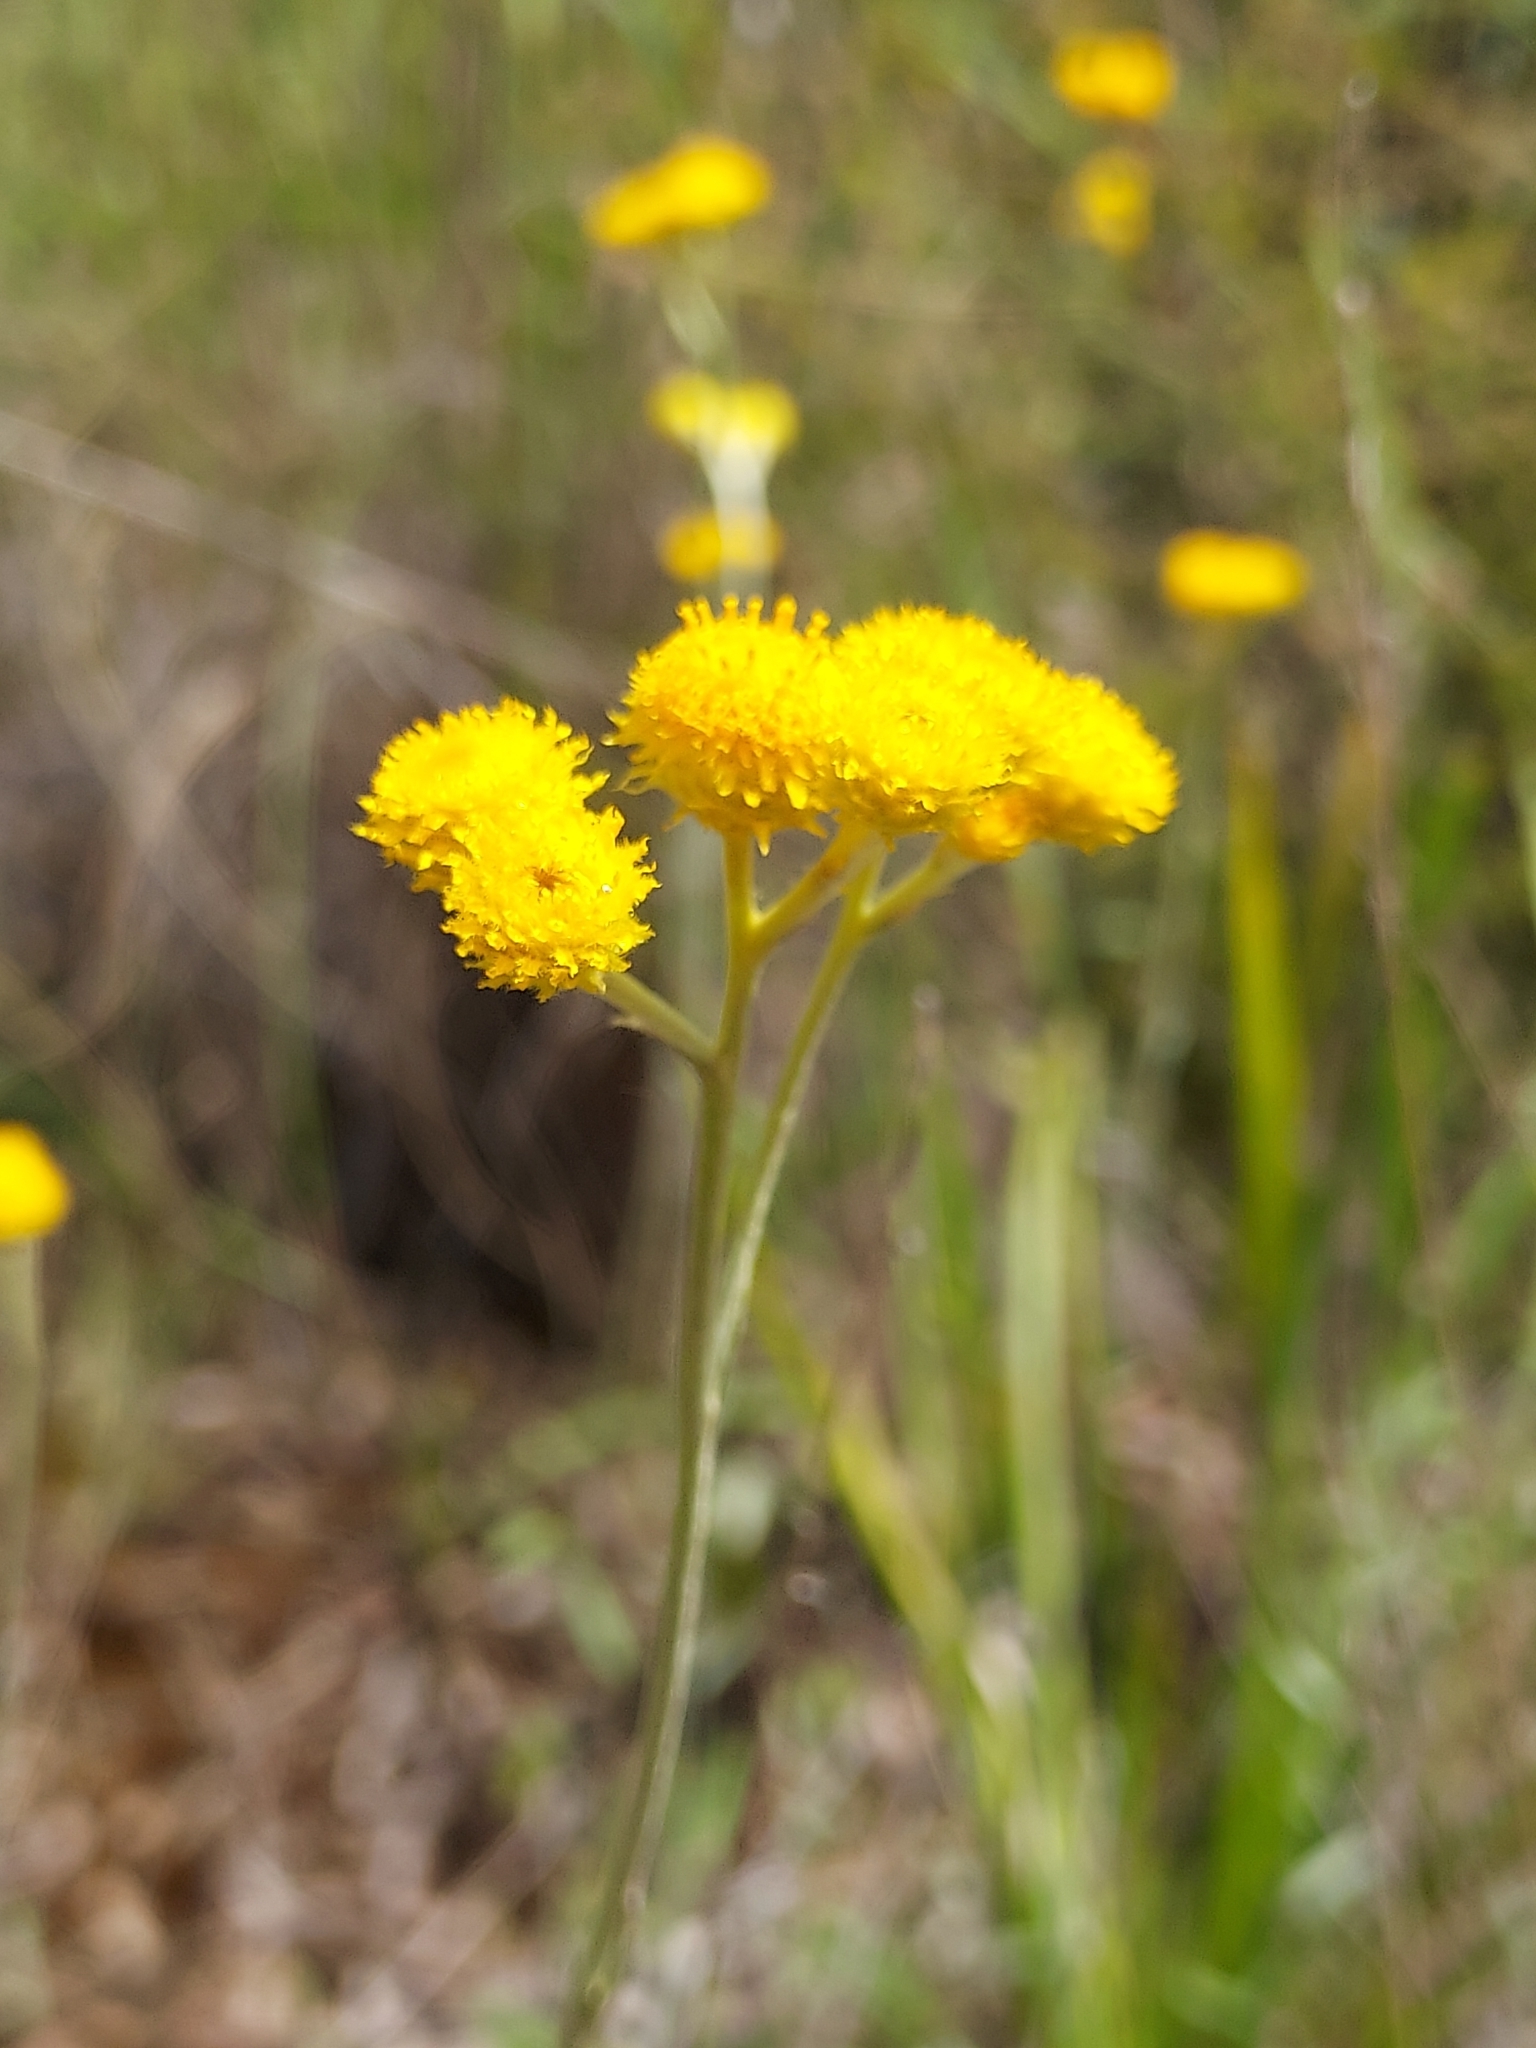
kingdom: Plantae
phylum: Tracheophyta
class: Magnoliopsida
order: Asterales
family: Asteraceae
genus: Chrysocephalum
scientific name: Chrysocephalum apiculatum
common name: Common everlasting
